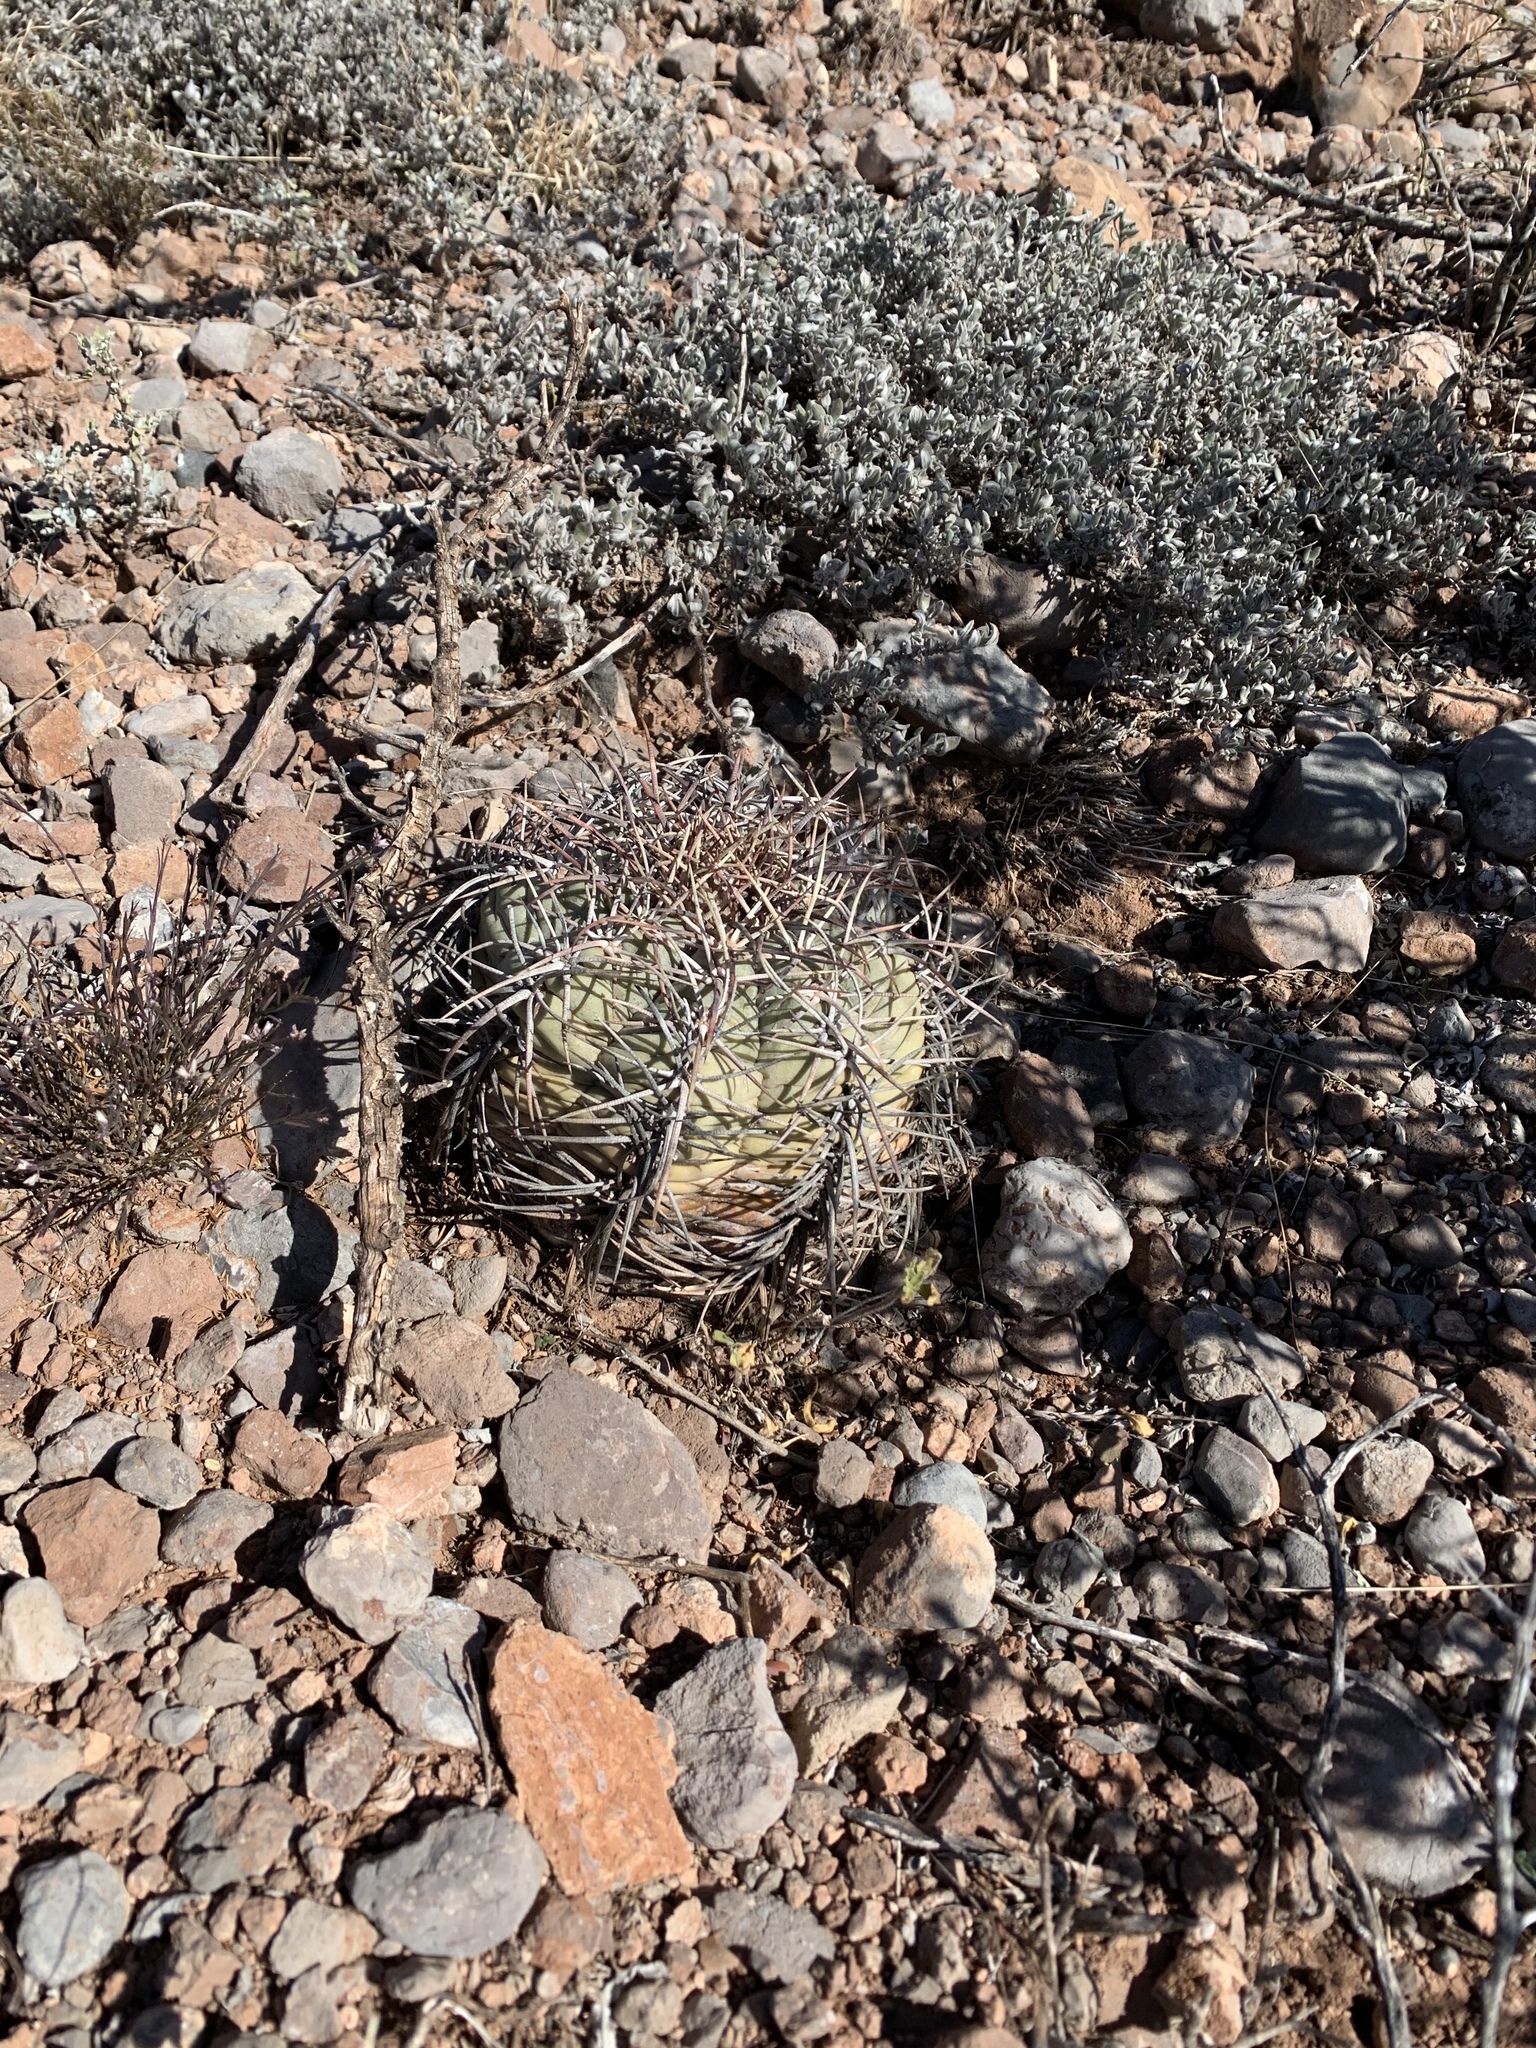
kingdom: Plantae
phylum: Tracheophyta
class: Magnoliopsida
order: Caryophyllales
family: Cactaceae
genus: Echinocactus
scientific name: Echinocactus horizonthalonius
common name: Devilshead
